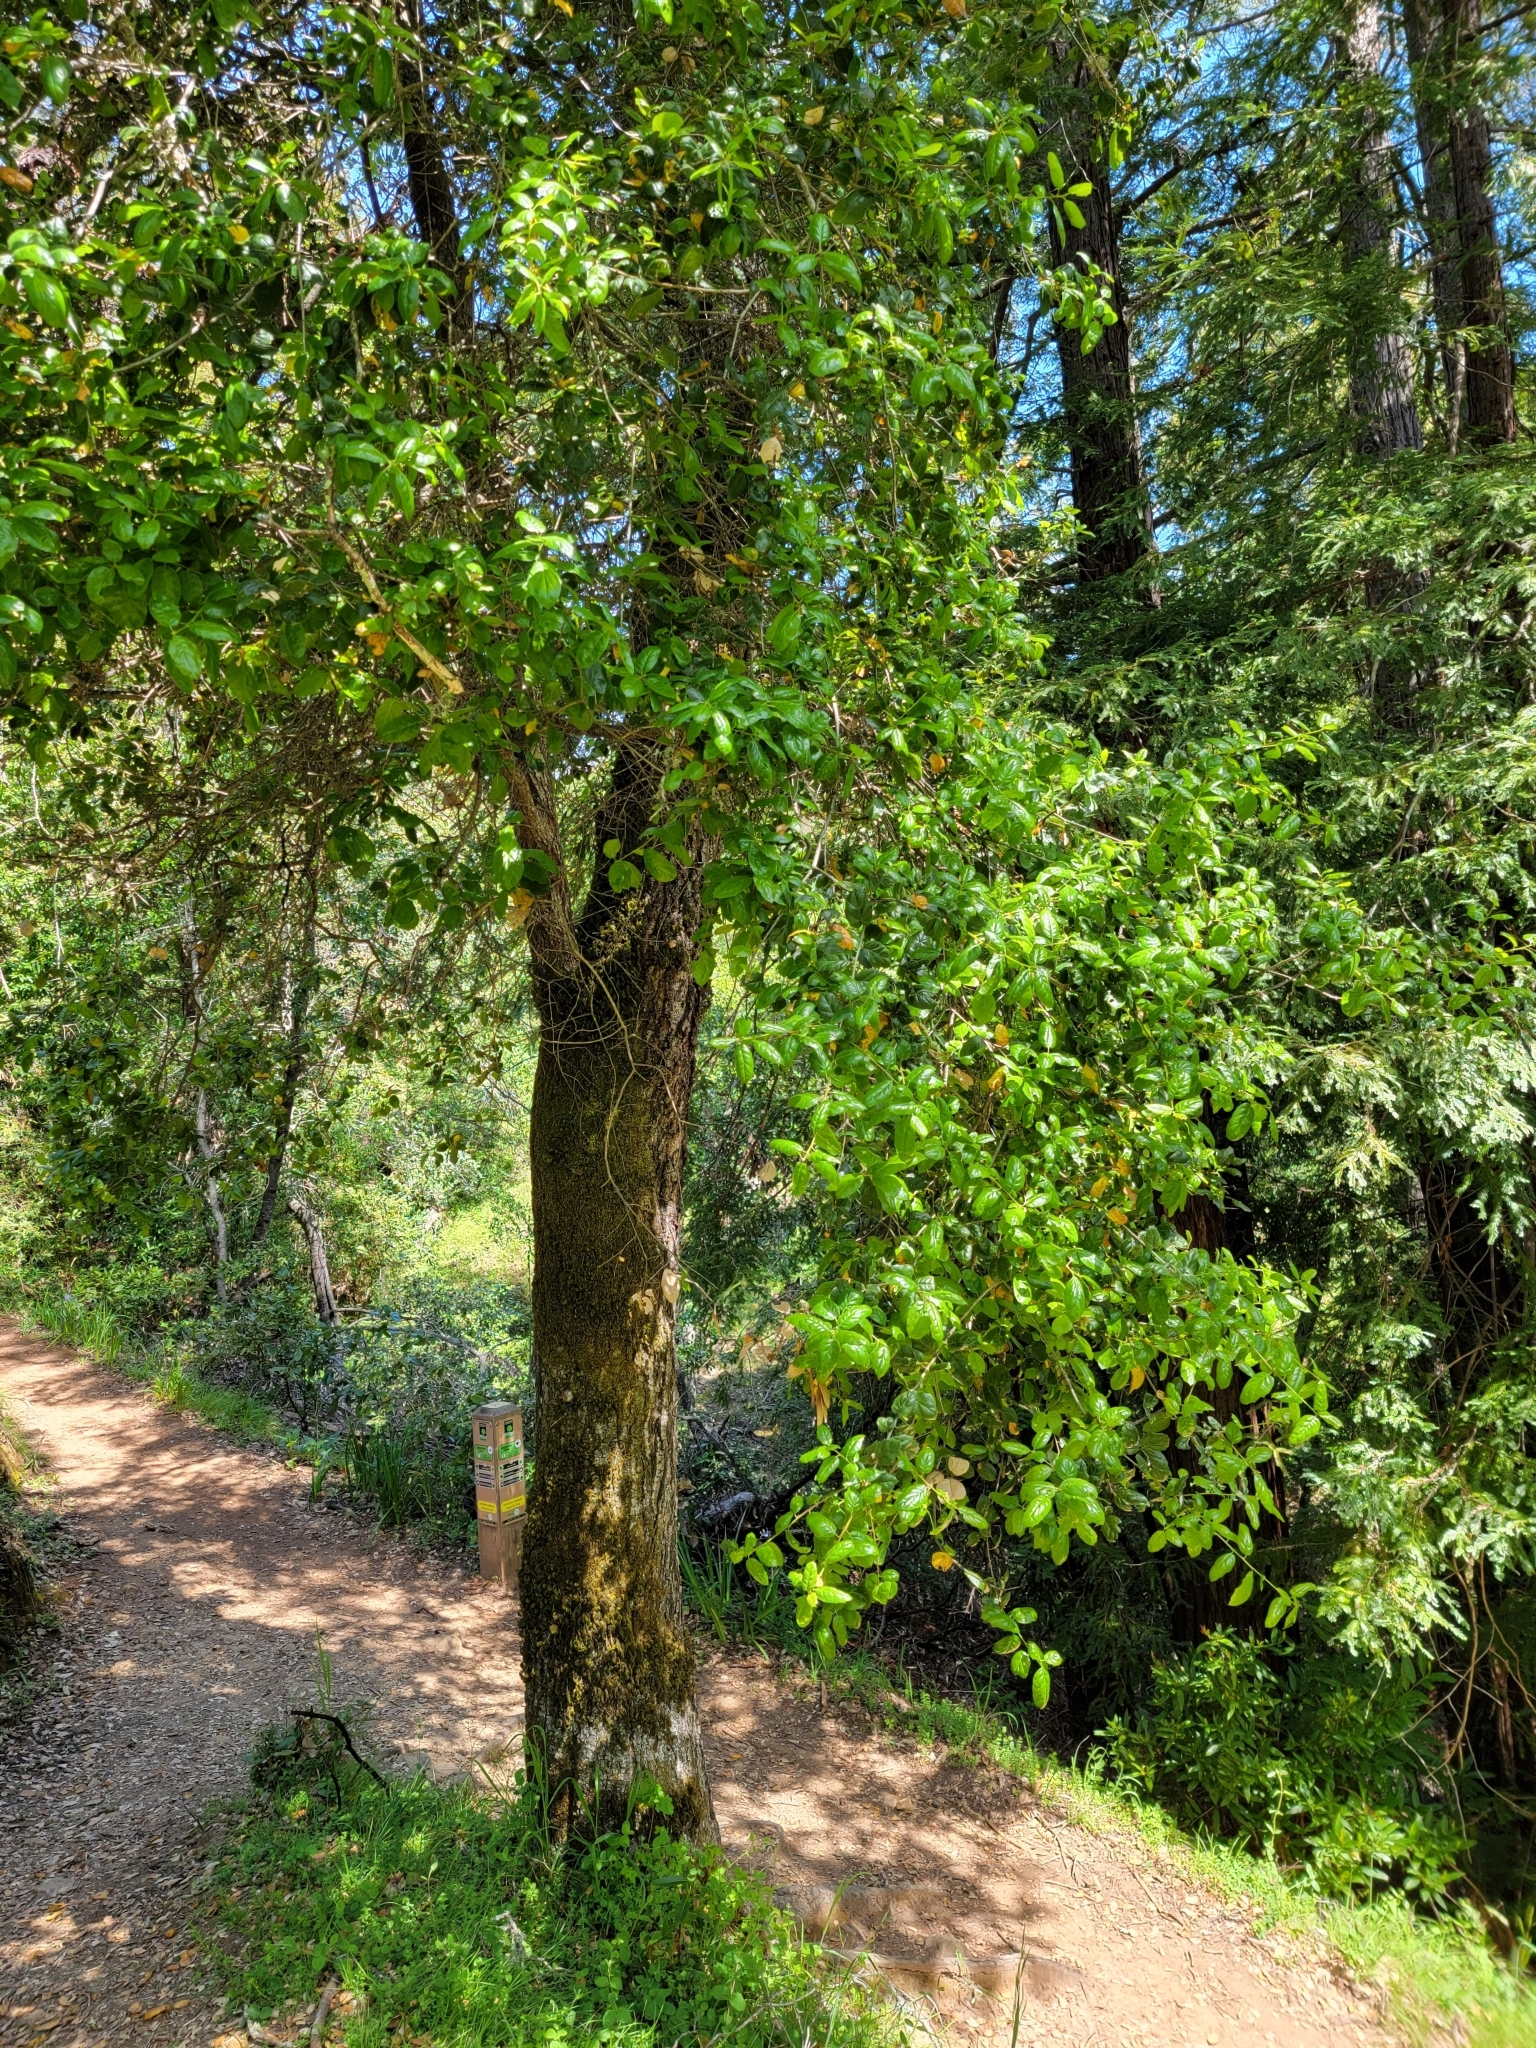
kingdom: Plantae
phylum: Tracheophyta
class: Magnoliopsida
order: Fagales
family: Fagaceae
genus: Quercus
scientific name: Quercus agrifolia
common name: California live oak
